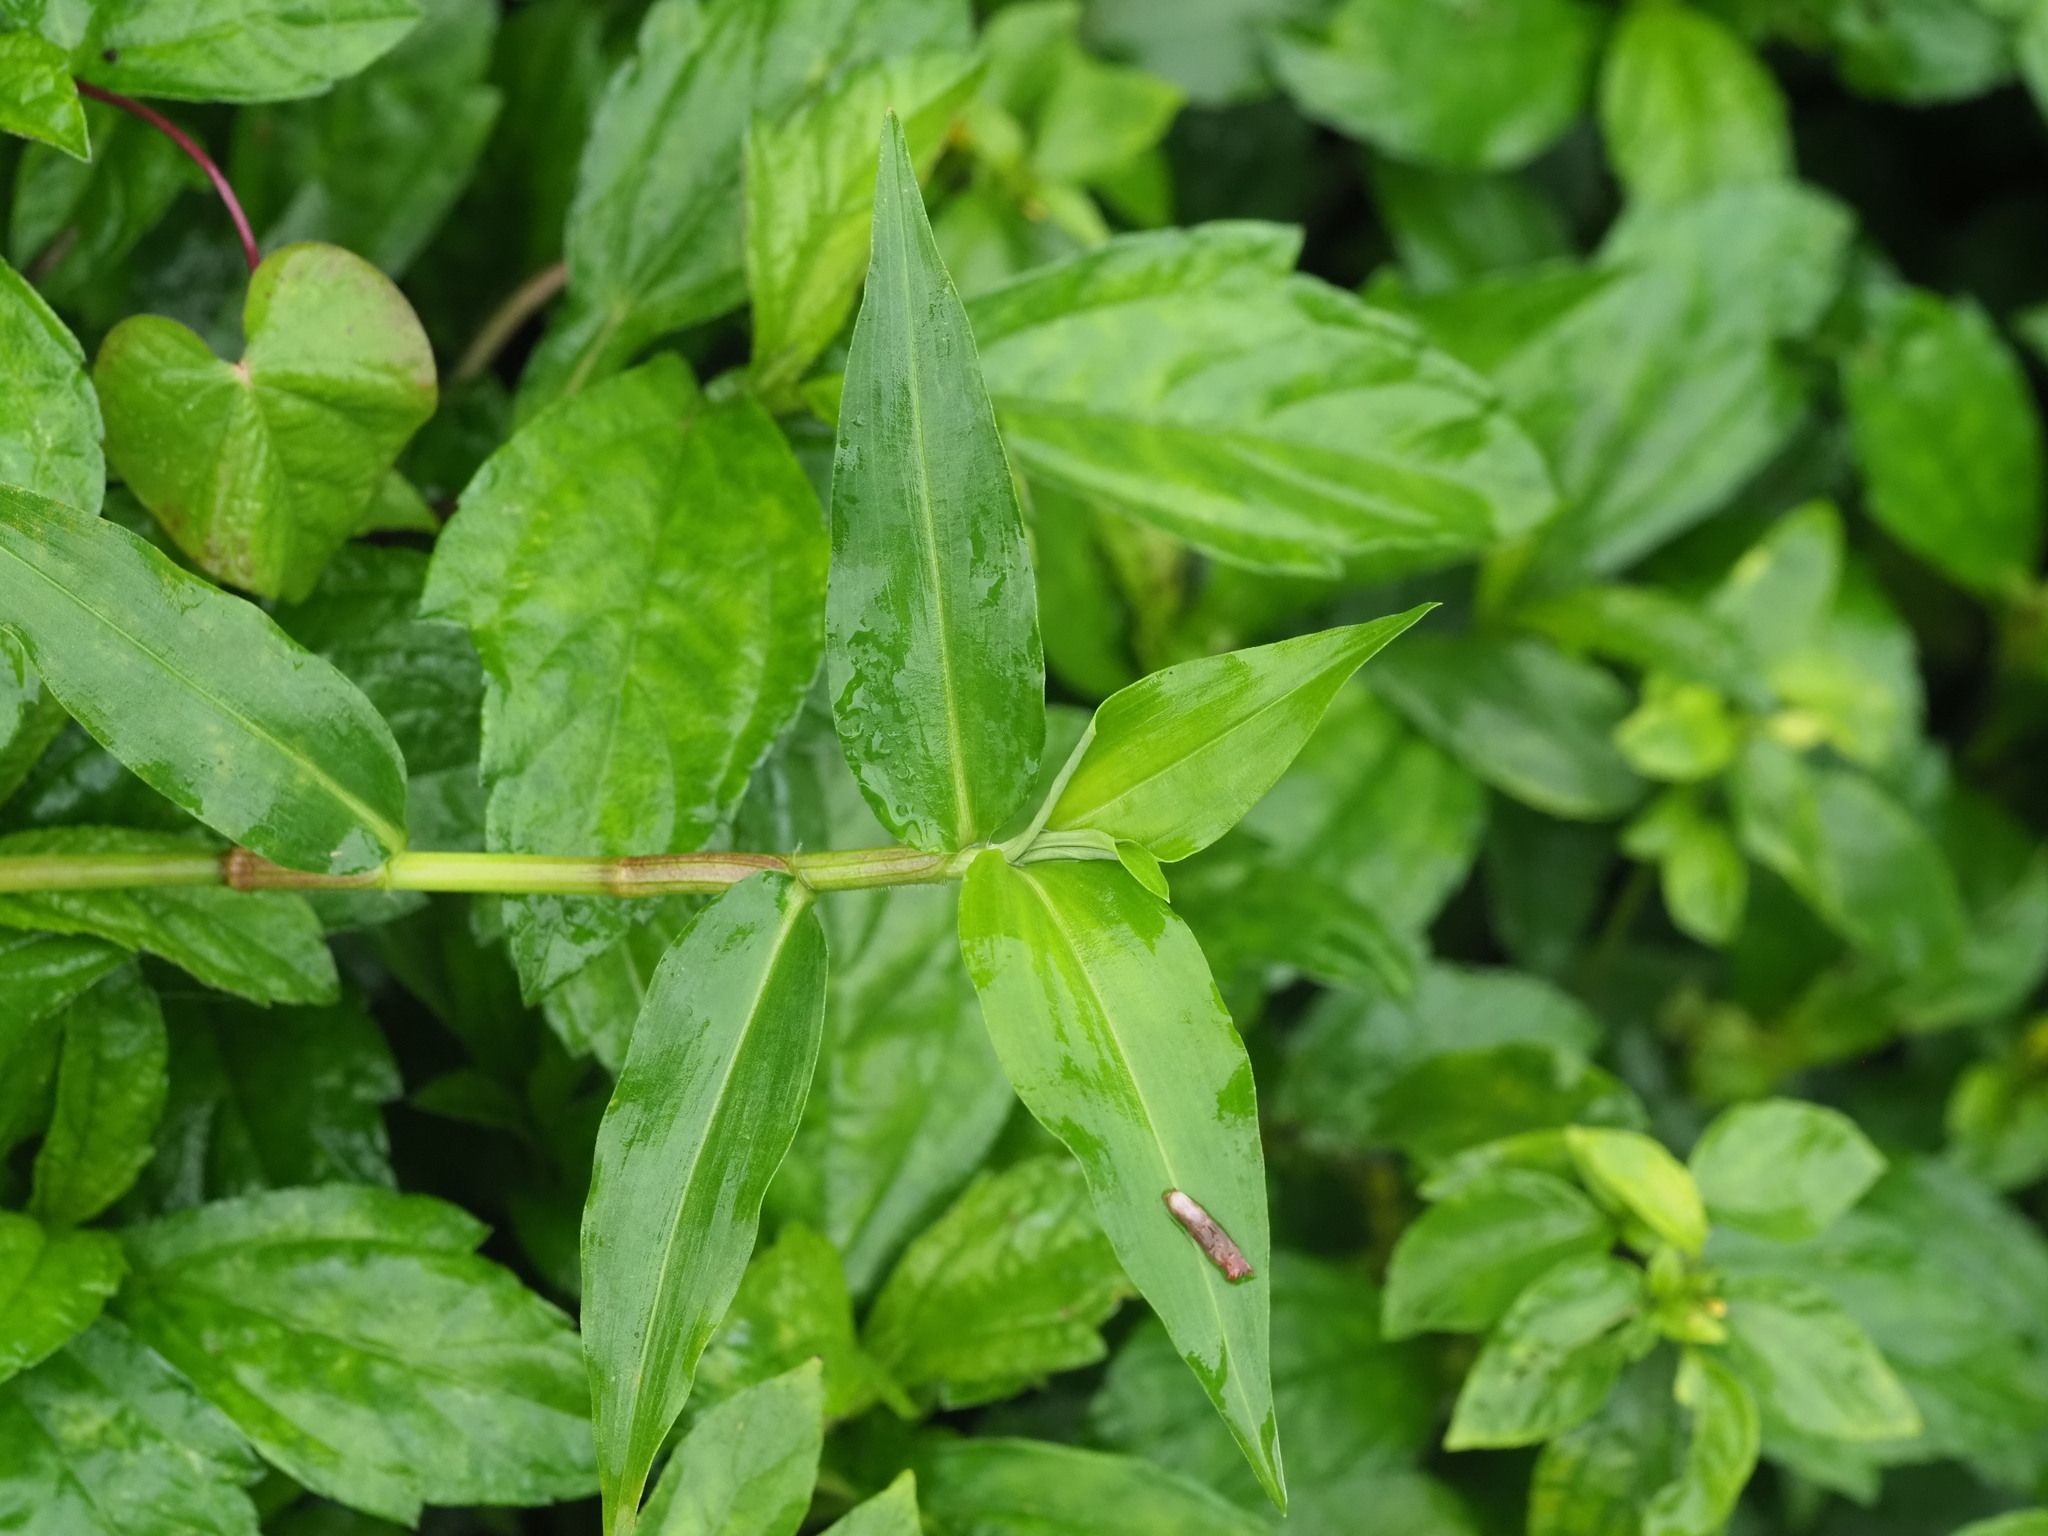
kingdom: Plantae
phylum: Tracheophyta
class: Liliopsida
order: Commelinales
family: Commelinaceae
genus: Commelina
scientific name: Commelina diffusa
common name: Climbing dayflower
